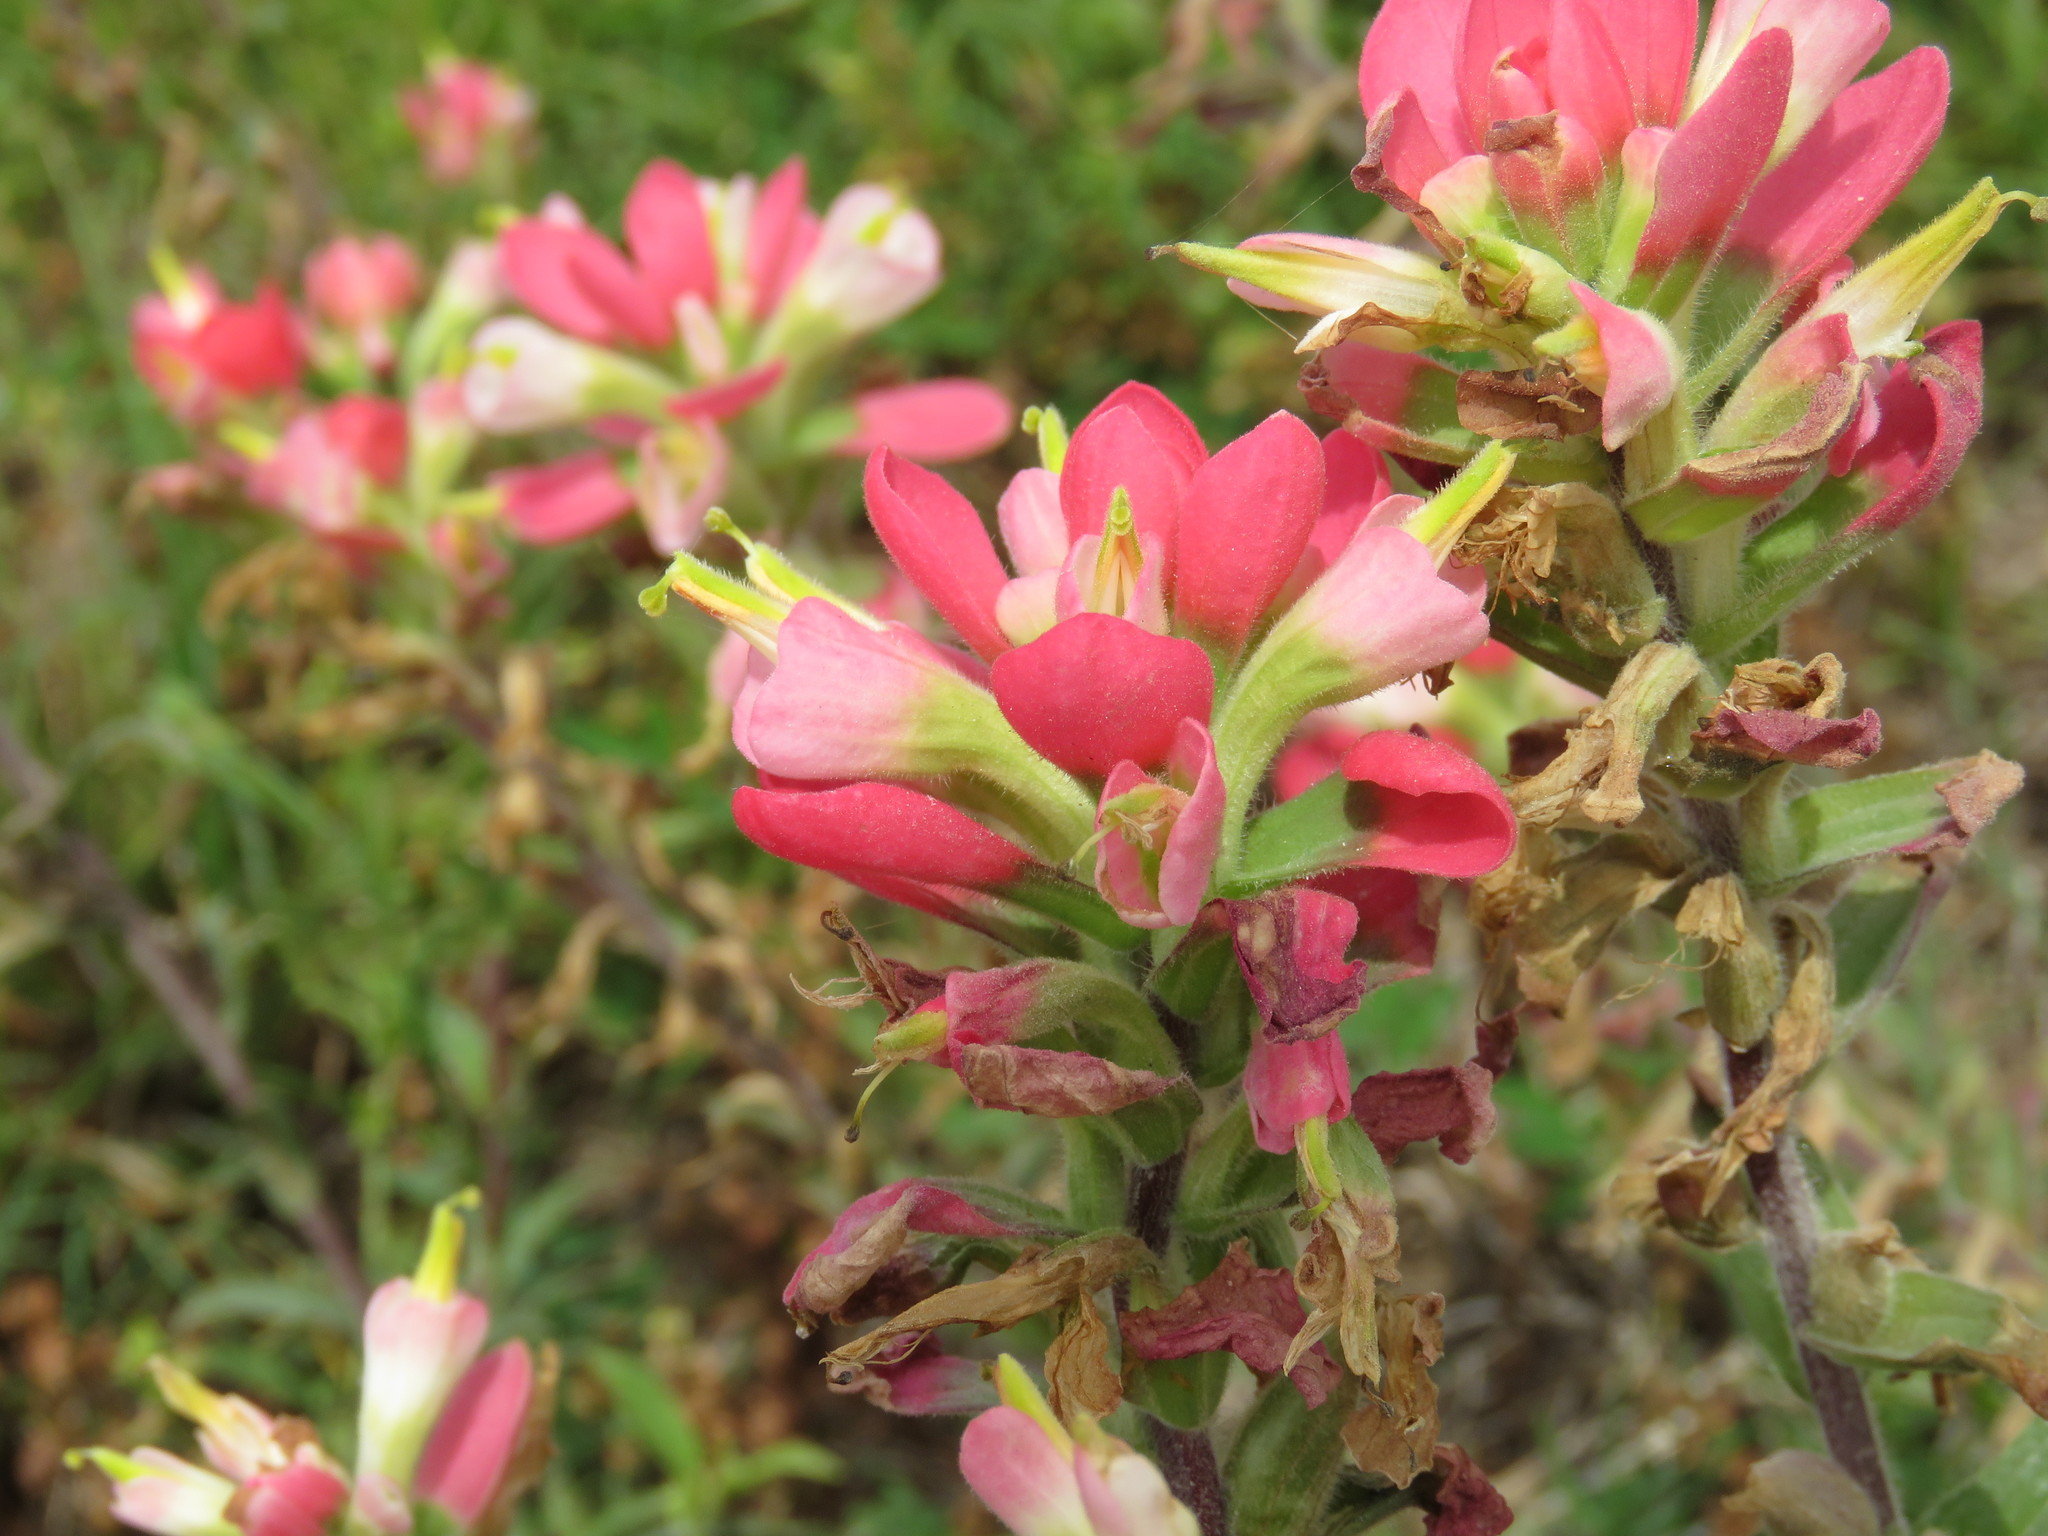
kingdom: Plantae
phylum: Tracheophyta
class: Magnoliopsida
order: Lamiales
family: Orobanchaceae
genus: Castilleja
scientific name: Castilleja indivisa
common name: Texas paintbrush
